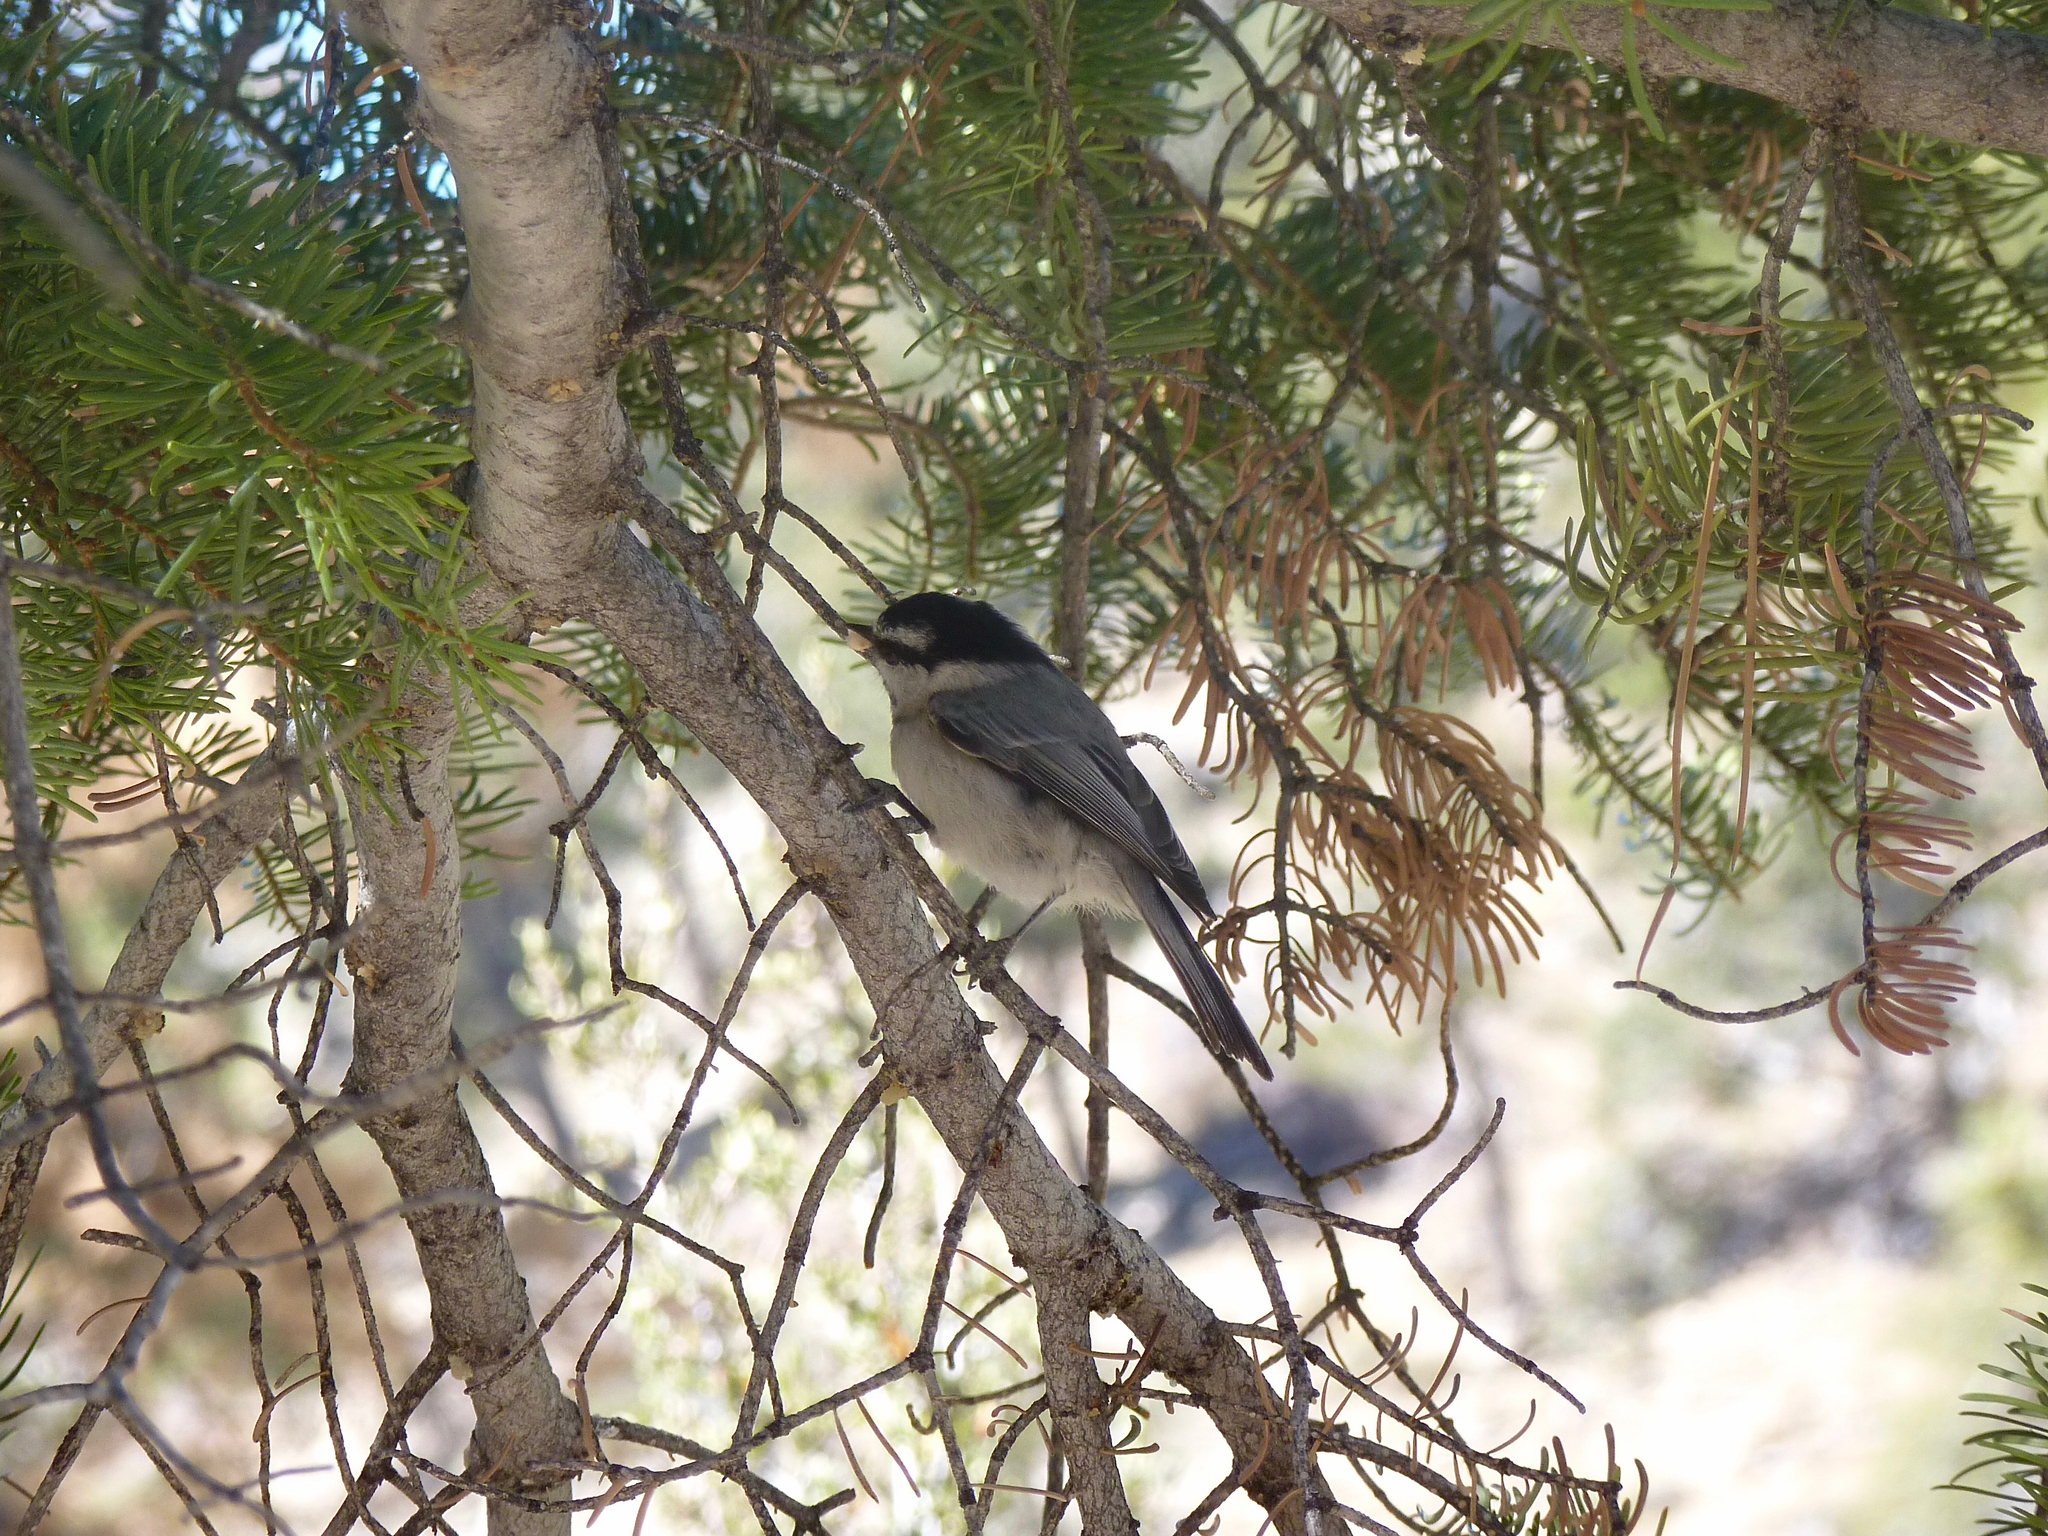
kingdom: Animalia
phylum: Chordata
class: Aves
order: Passeriformes
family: Paridae
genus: Poecile
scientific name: Poecile gambeli
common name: Mountain chickadee
